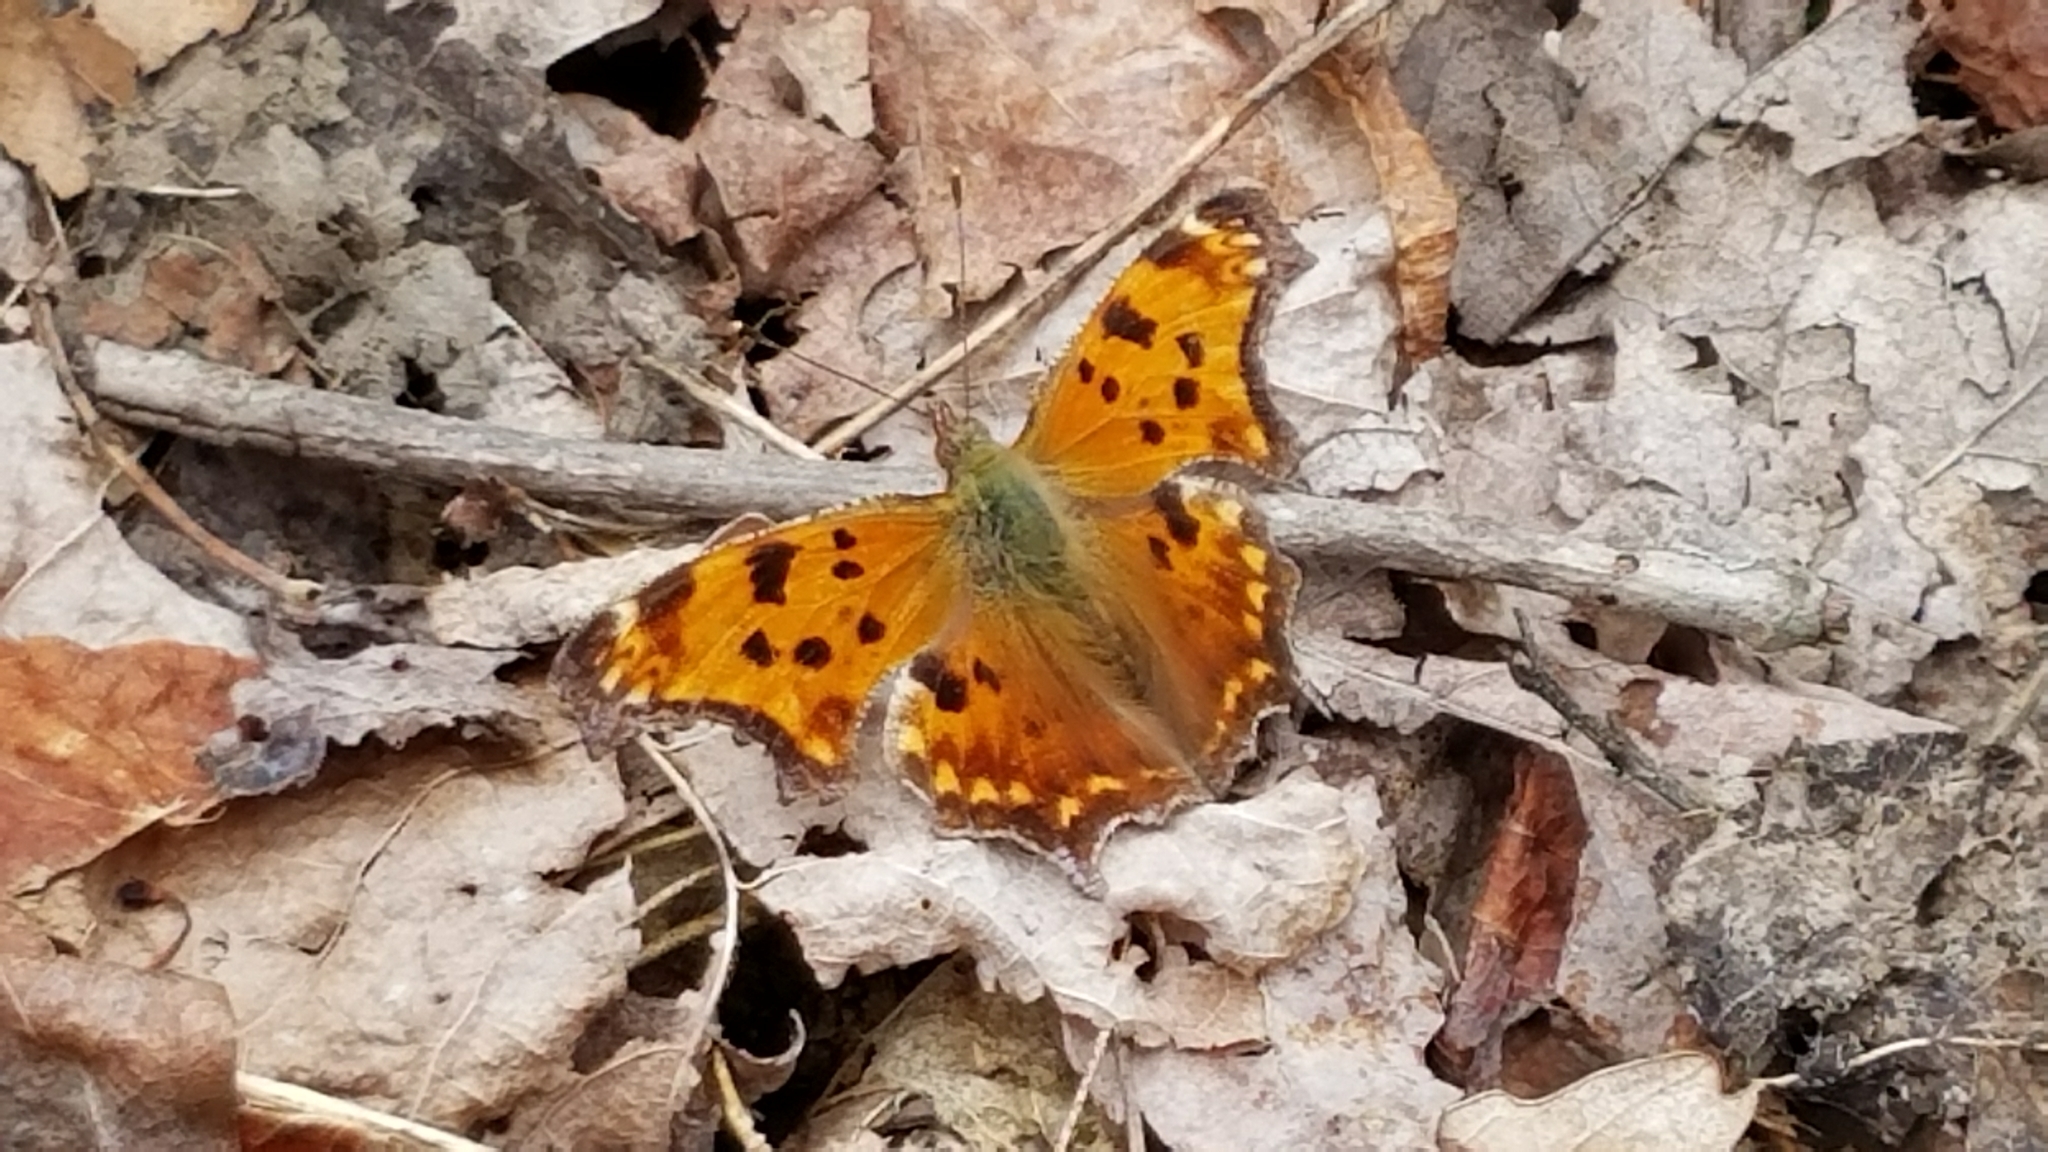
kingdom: Animalia
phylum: Arthropoda
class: Insecta
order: Lepidoptera
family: Nymphalidae
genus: Polygonia
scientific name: Polygonia comma
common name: Eastern comma
